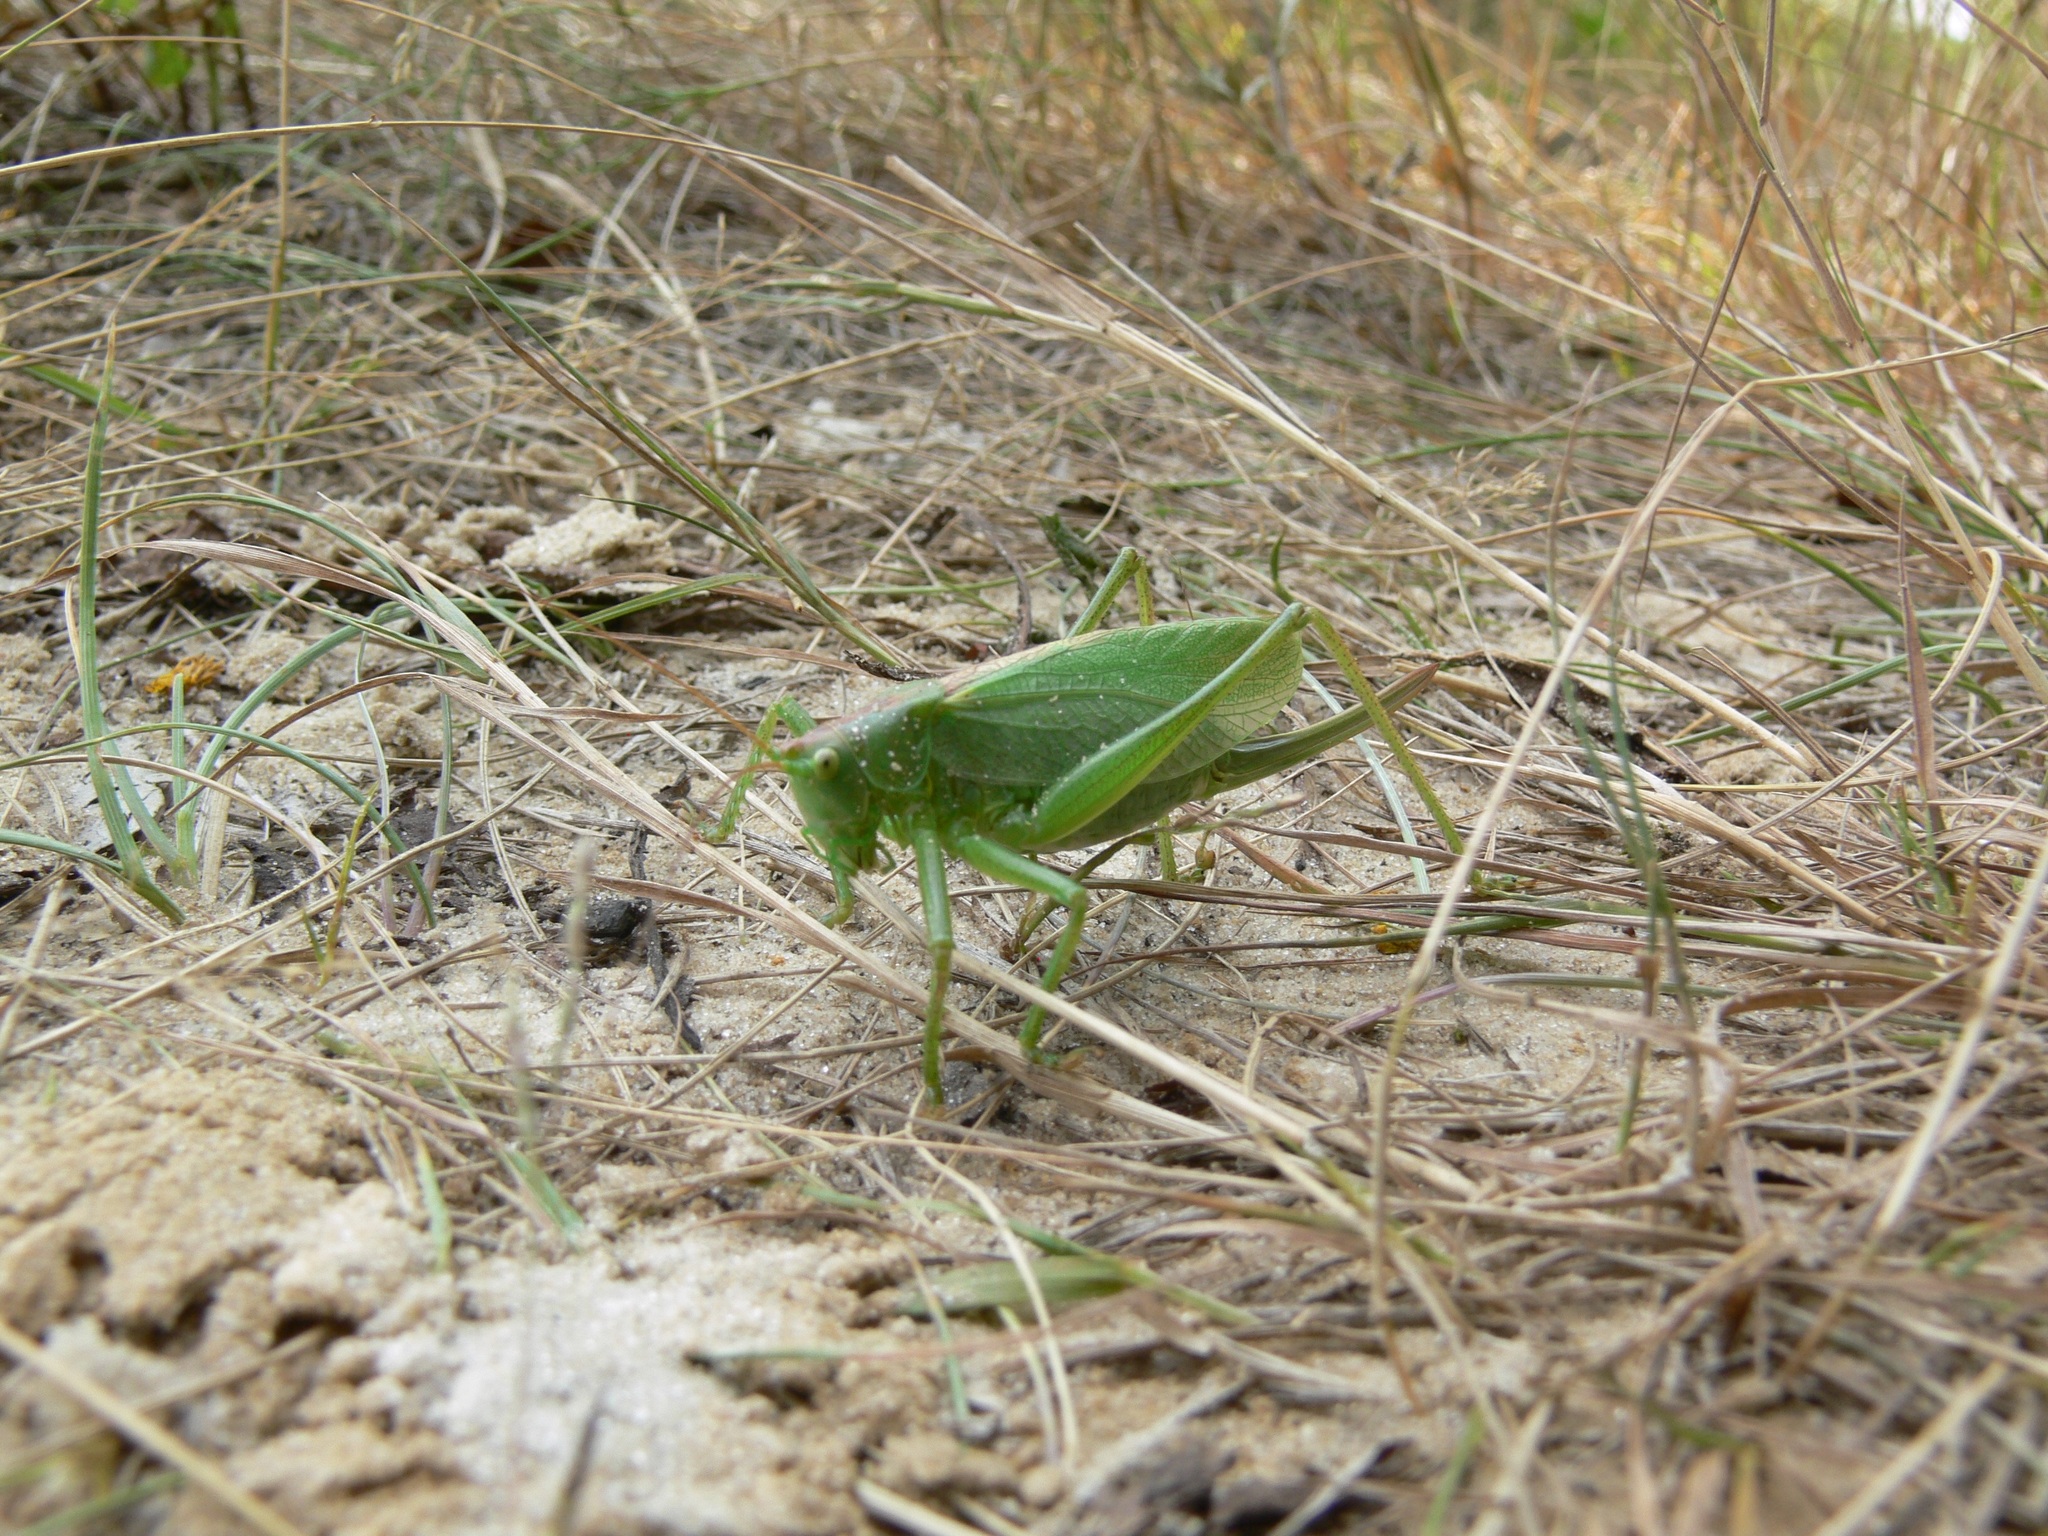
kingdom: Animalia
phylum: Arthropoda
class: Insecta
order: Orthoptera
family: Tettigoniidae
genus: Tettigonia
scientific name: Tettigonia cantans
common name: Upland green bush-cricket
